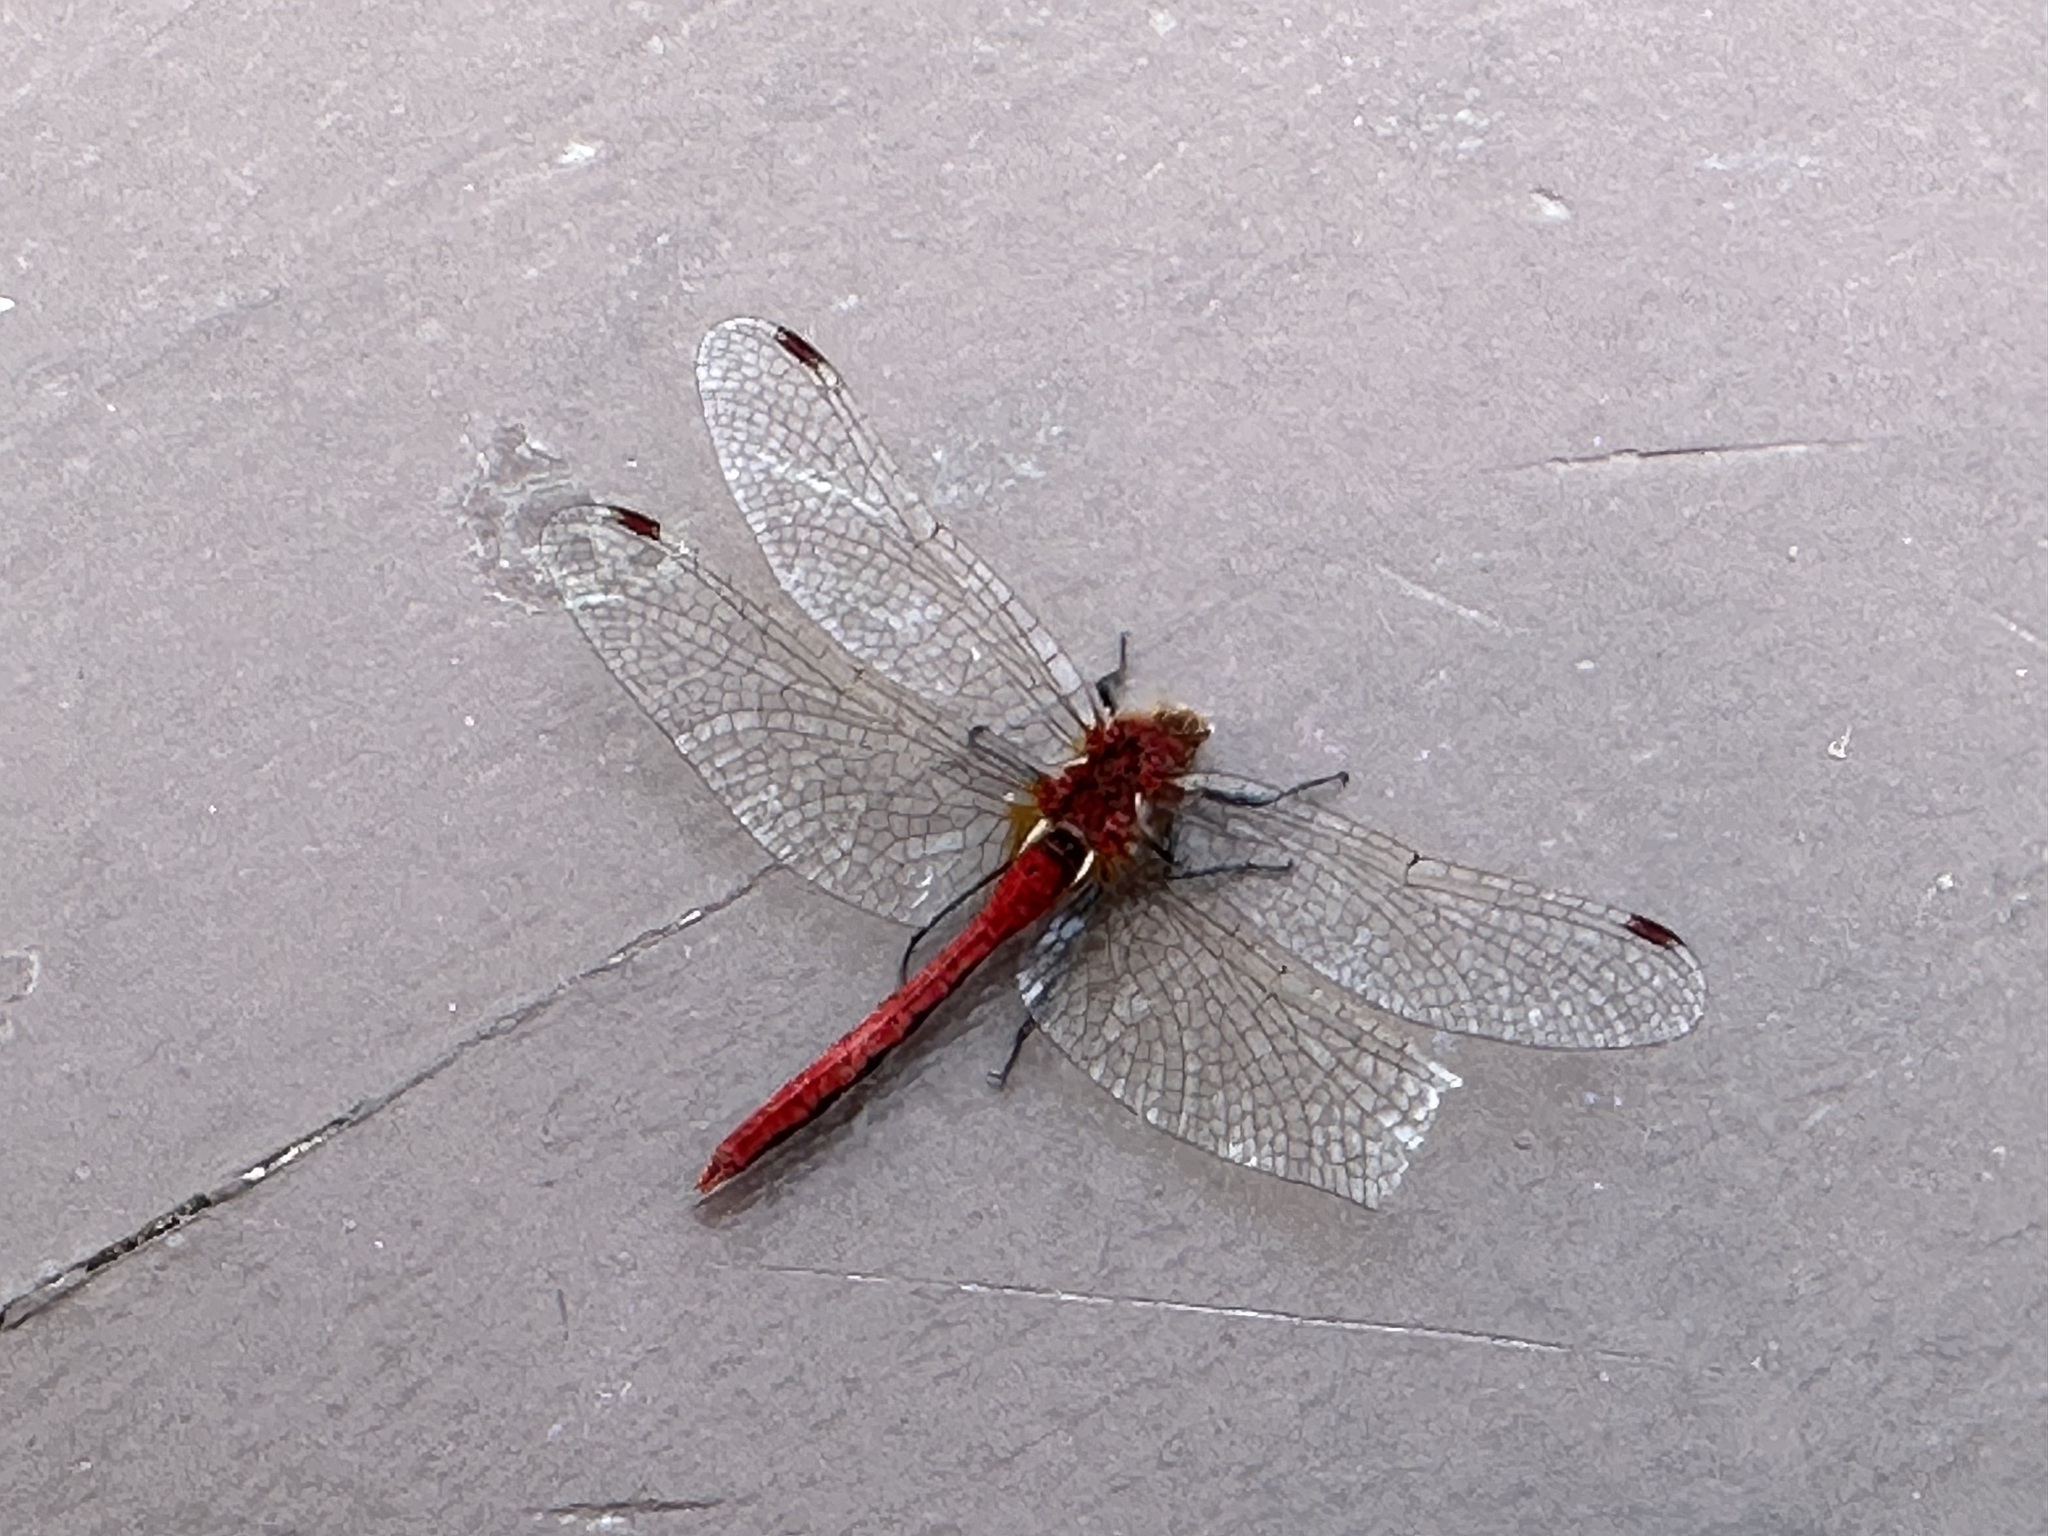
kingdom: Animalia
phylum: Arthropoda
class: Insecta
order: Odonata
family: Libellulidae
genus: Sympetrum
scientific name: Sympetrum internum
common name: Cherry-faced meadowhawk
